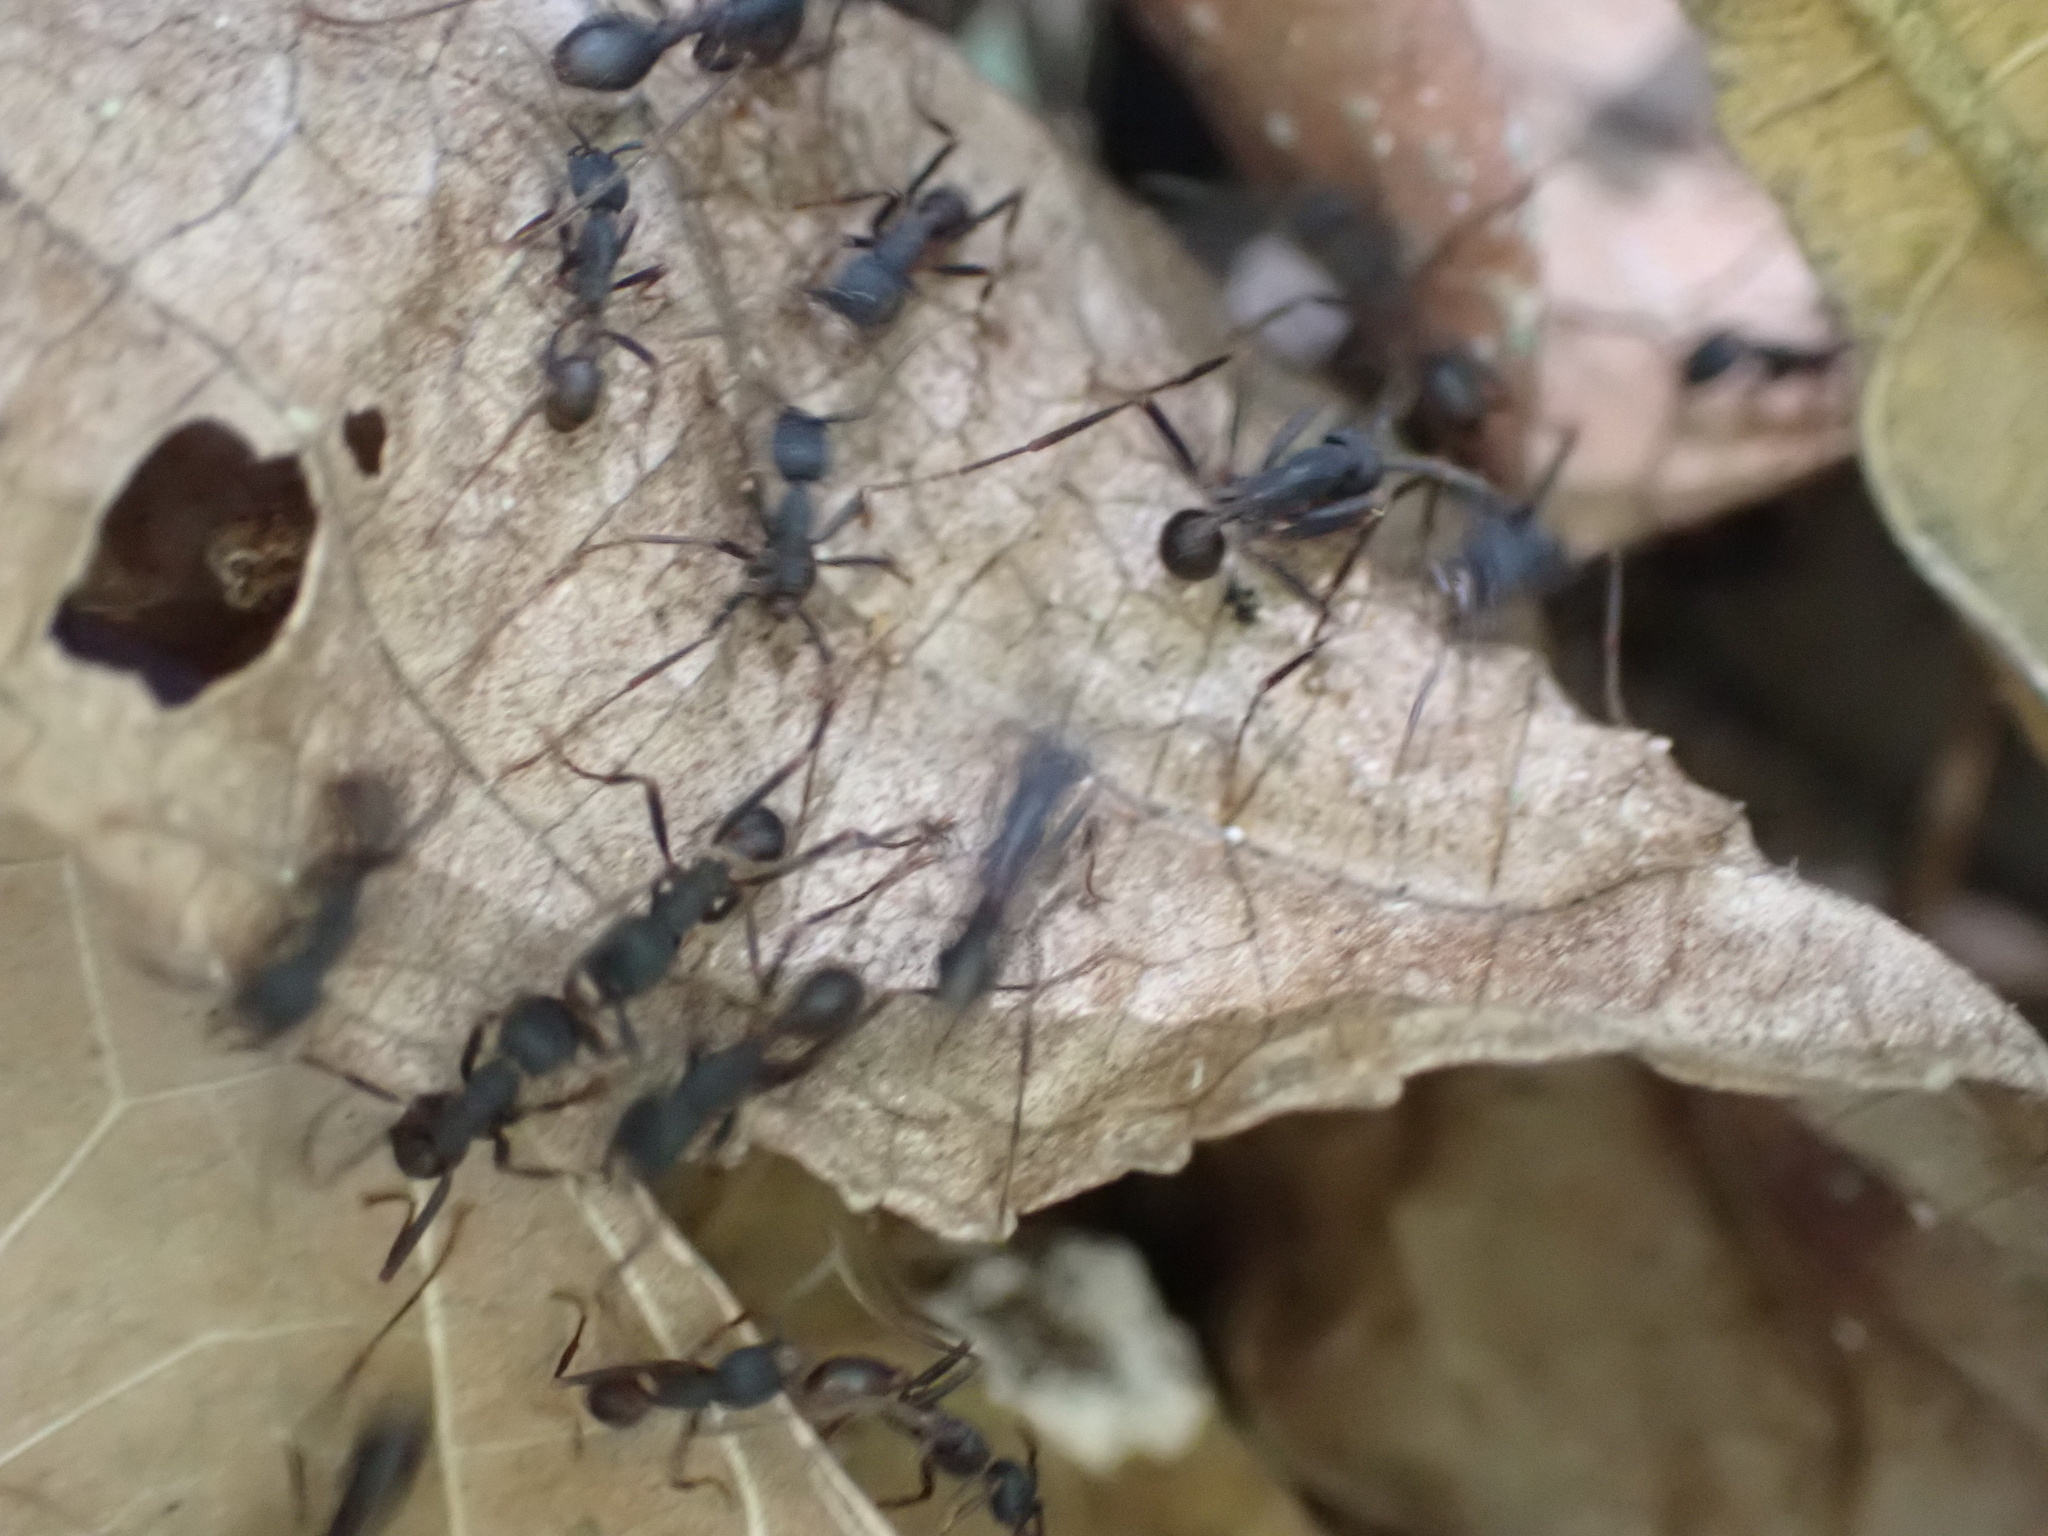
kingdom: Animalia
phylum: Arthropoda
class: Insecta
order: Hymenoptera
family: Formicidae
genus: Eciton
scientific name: Eciton burchellii
